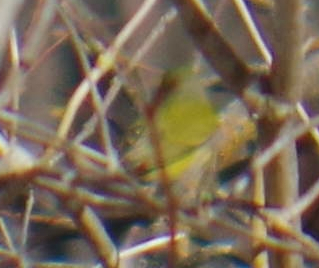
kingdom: Animalia
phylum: Chordata
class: Aves
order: Passeriformes
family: Parulidae
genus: Leiothlypis
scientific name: Leiothlypis ruficapilla
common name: Nashville warbler
